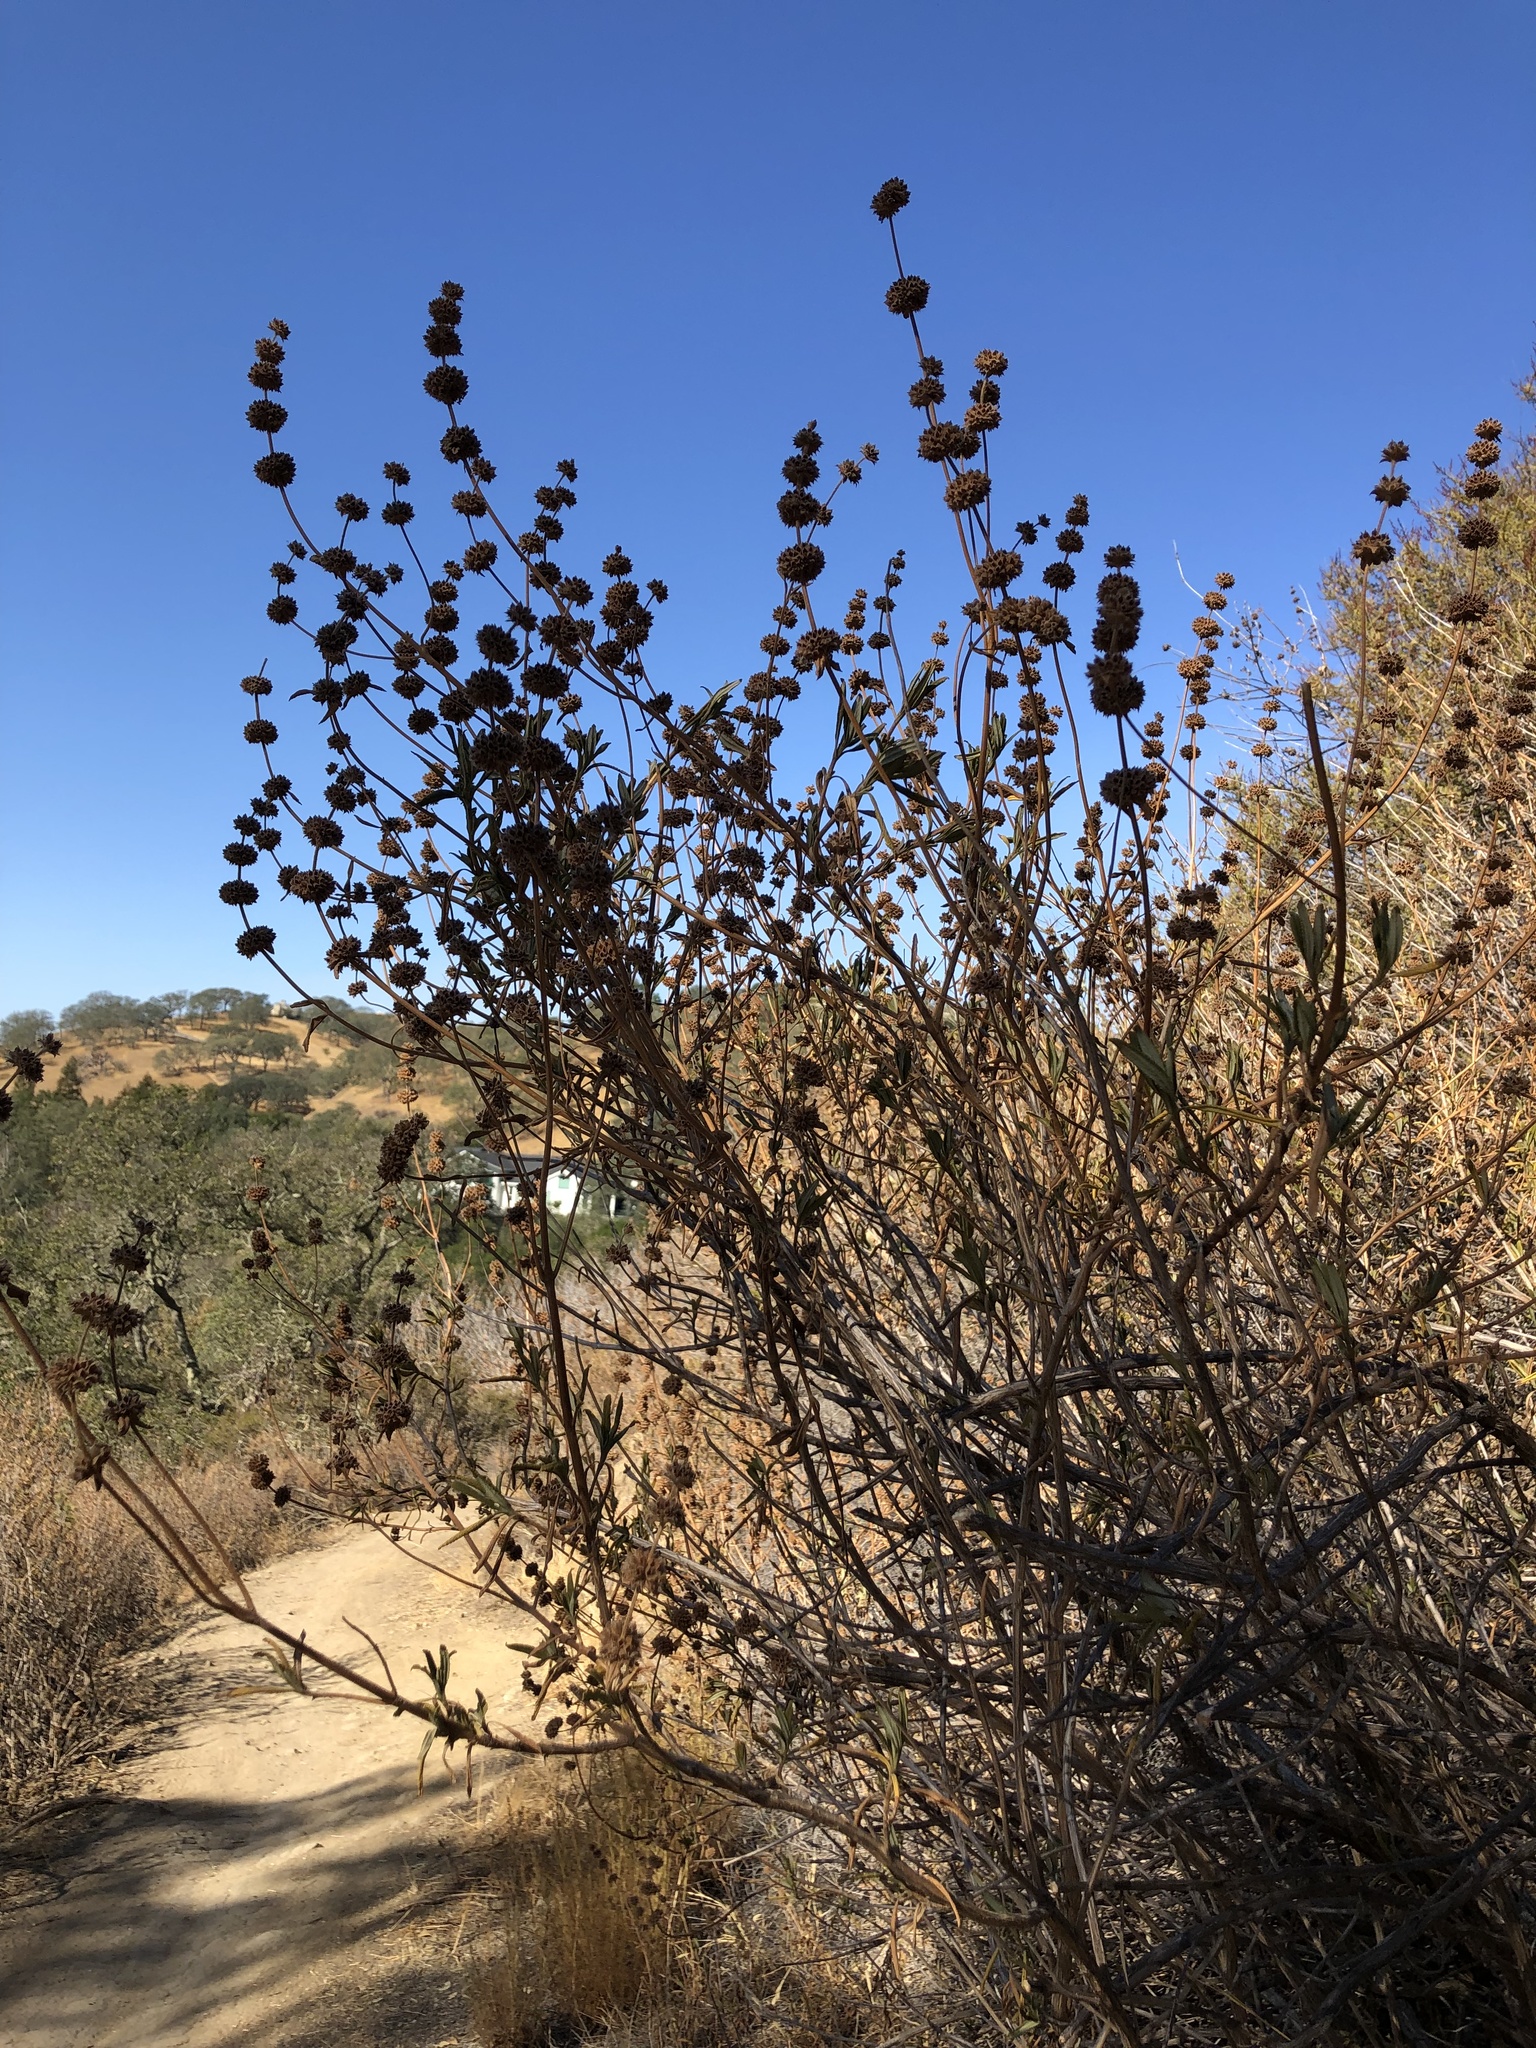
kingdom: Plantae
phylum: Tracheophyta
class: Magnoliopsida
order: Lamiales
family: Lamiaceae
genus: Salvia
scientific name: Salvia mellifera
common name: Black sage
